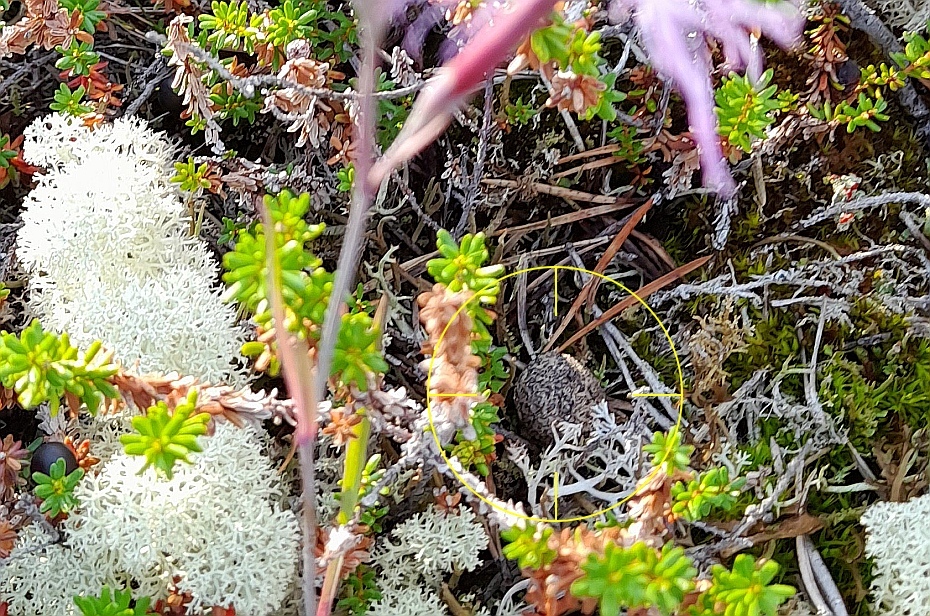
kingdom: Animalia
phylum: Chordata
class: Mammalia
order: Lagomorpha
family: Leporidae
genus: Lepus
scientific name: Lepus timidus
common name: Mountain hare
